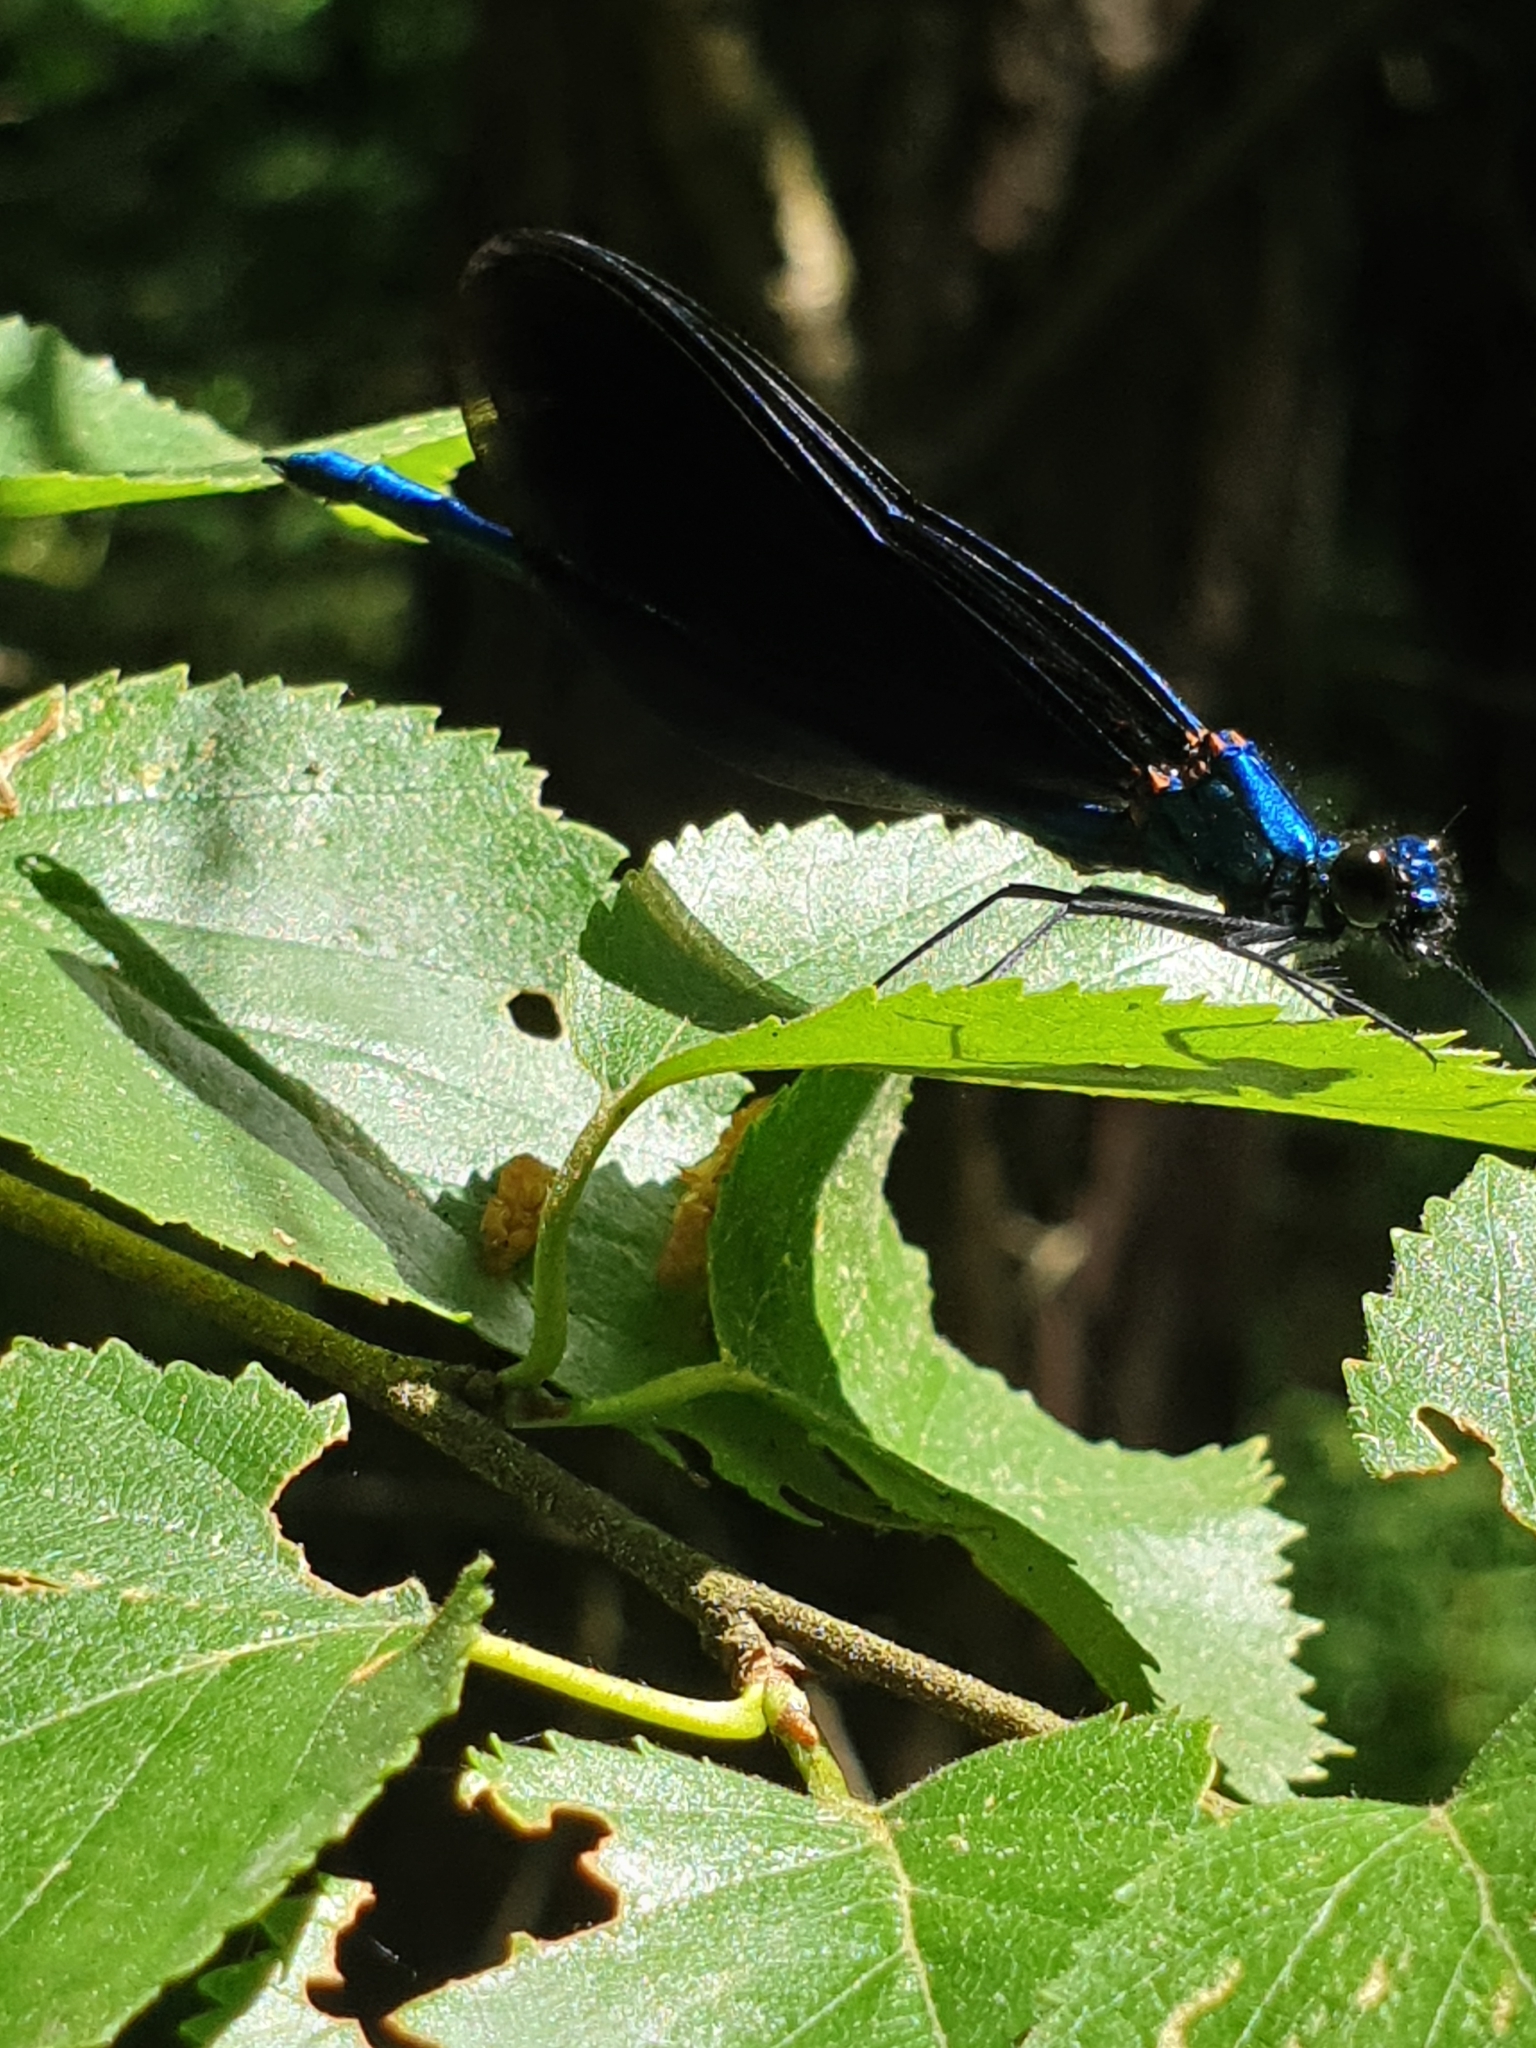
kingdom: Animalia
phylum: Arthropoda
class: Insecta
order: Odonata
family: Calopterygidae
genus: Calopteryx
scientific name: Calopteryx virgo
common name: Beautiful demoiselle
